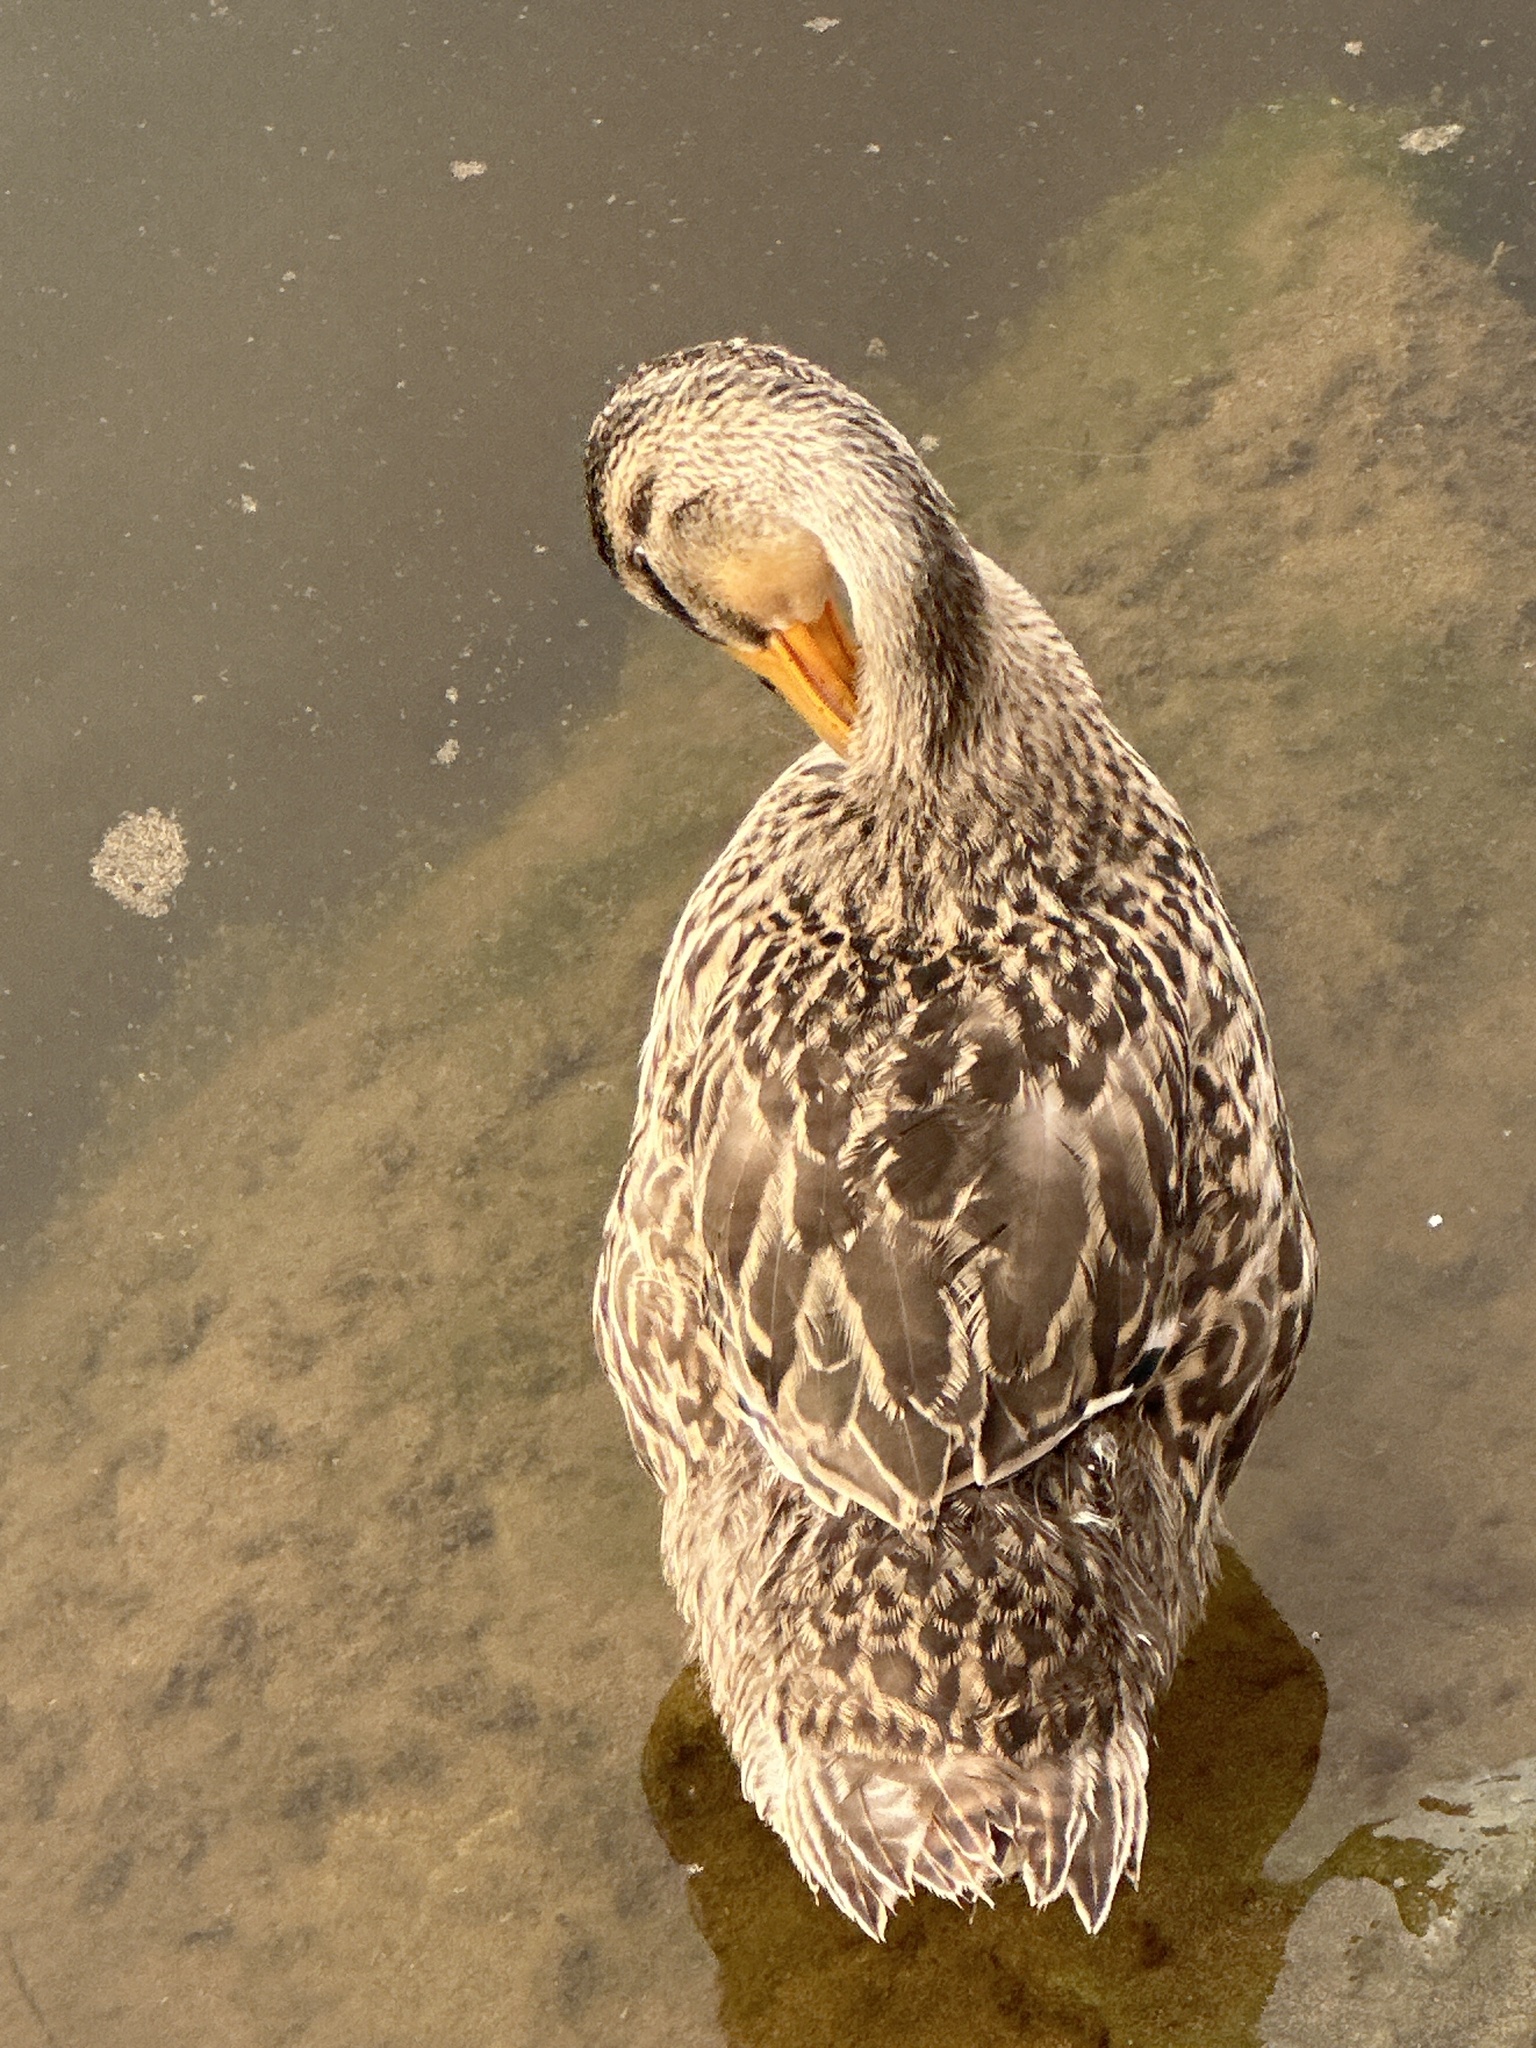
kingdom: Animalia
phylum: Chordata
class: Aves
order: Anseriformes
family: Anatidae
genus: Anas
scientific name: Anas platyrhynchos
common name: Mallard
